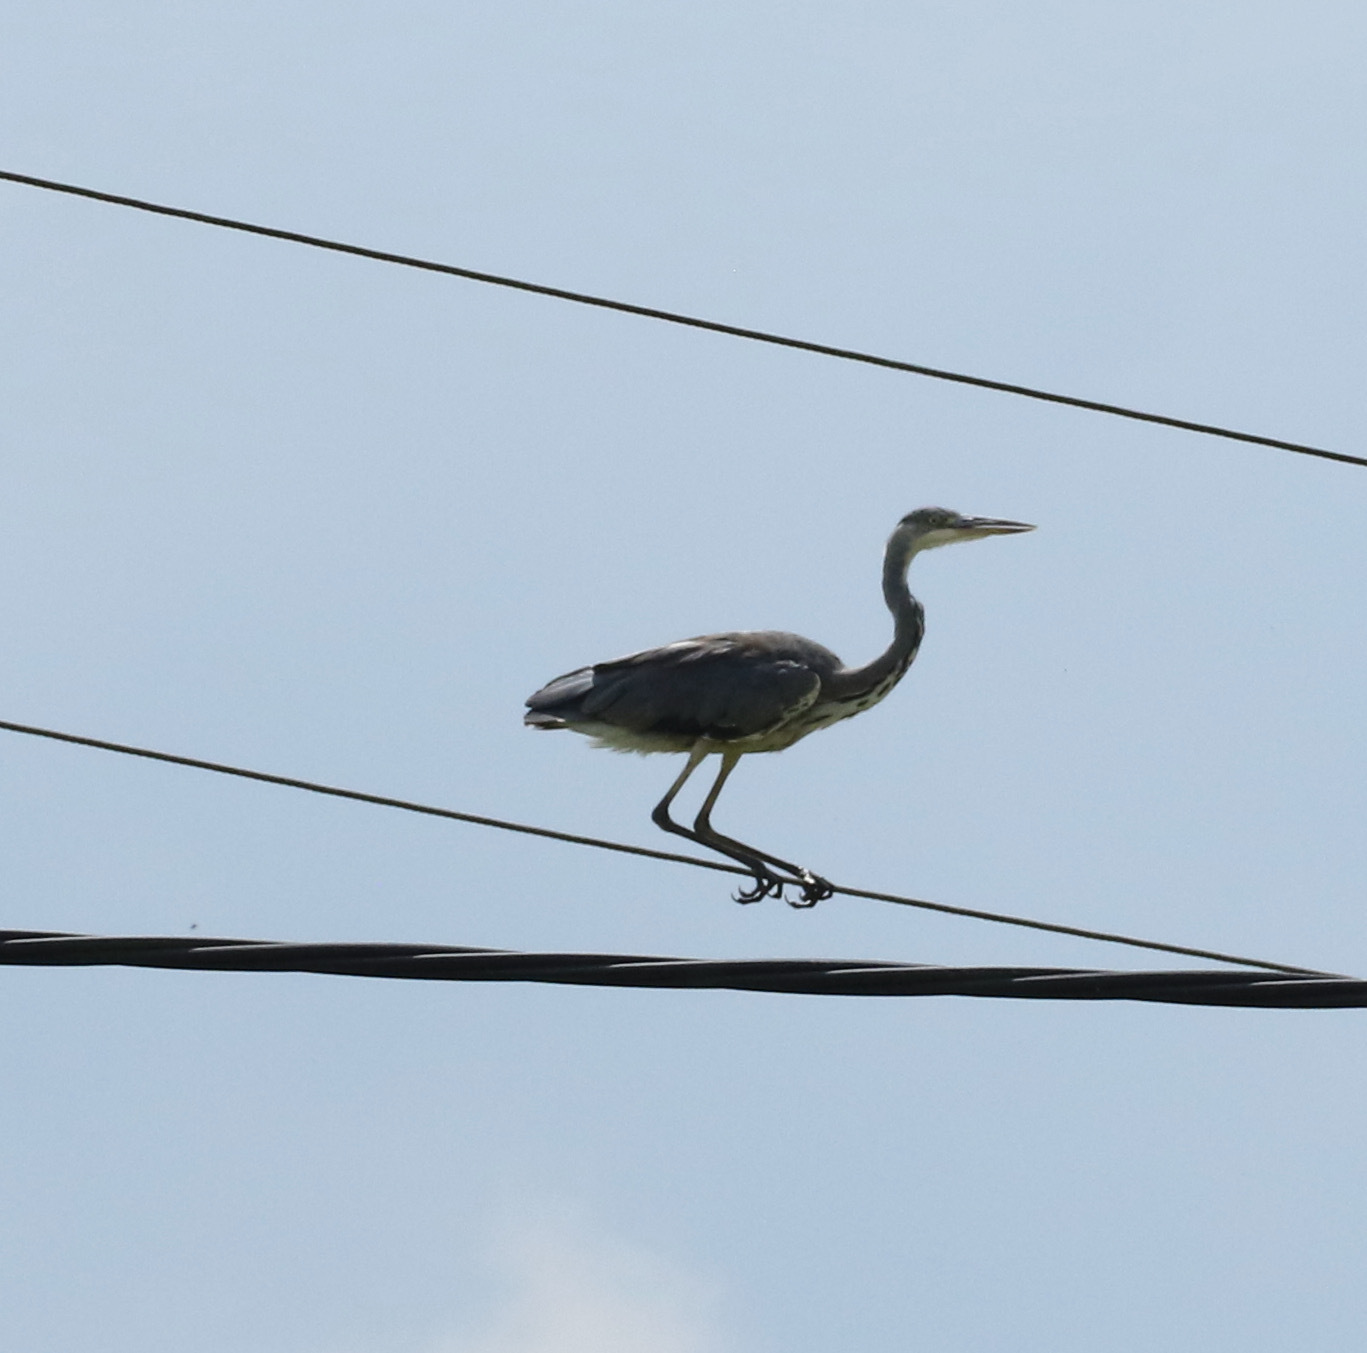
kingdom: Animalia
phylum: Chordata
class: Aves
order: Pelecaniformes
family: Ardeidae
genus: Ardea
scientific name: Ardea cinerea
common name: Grey heron
